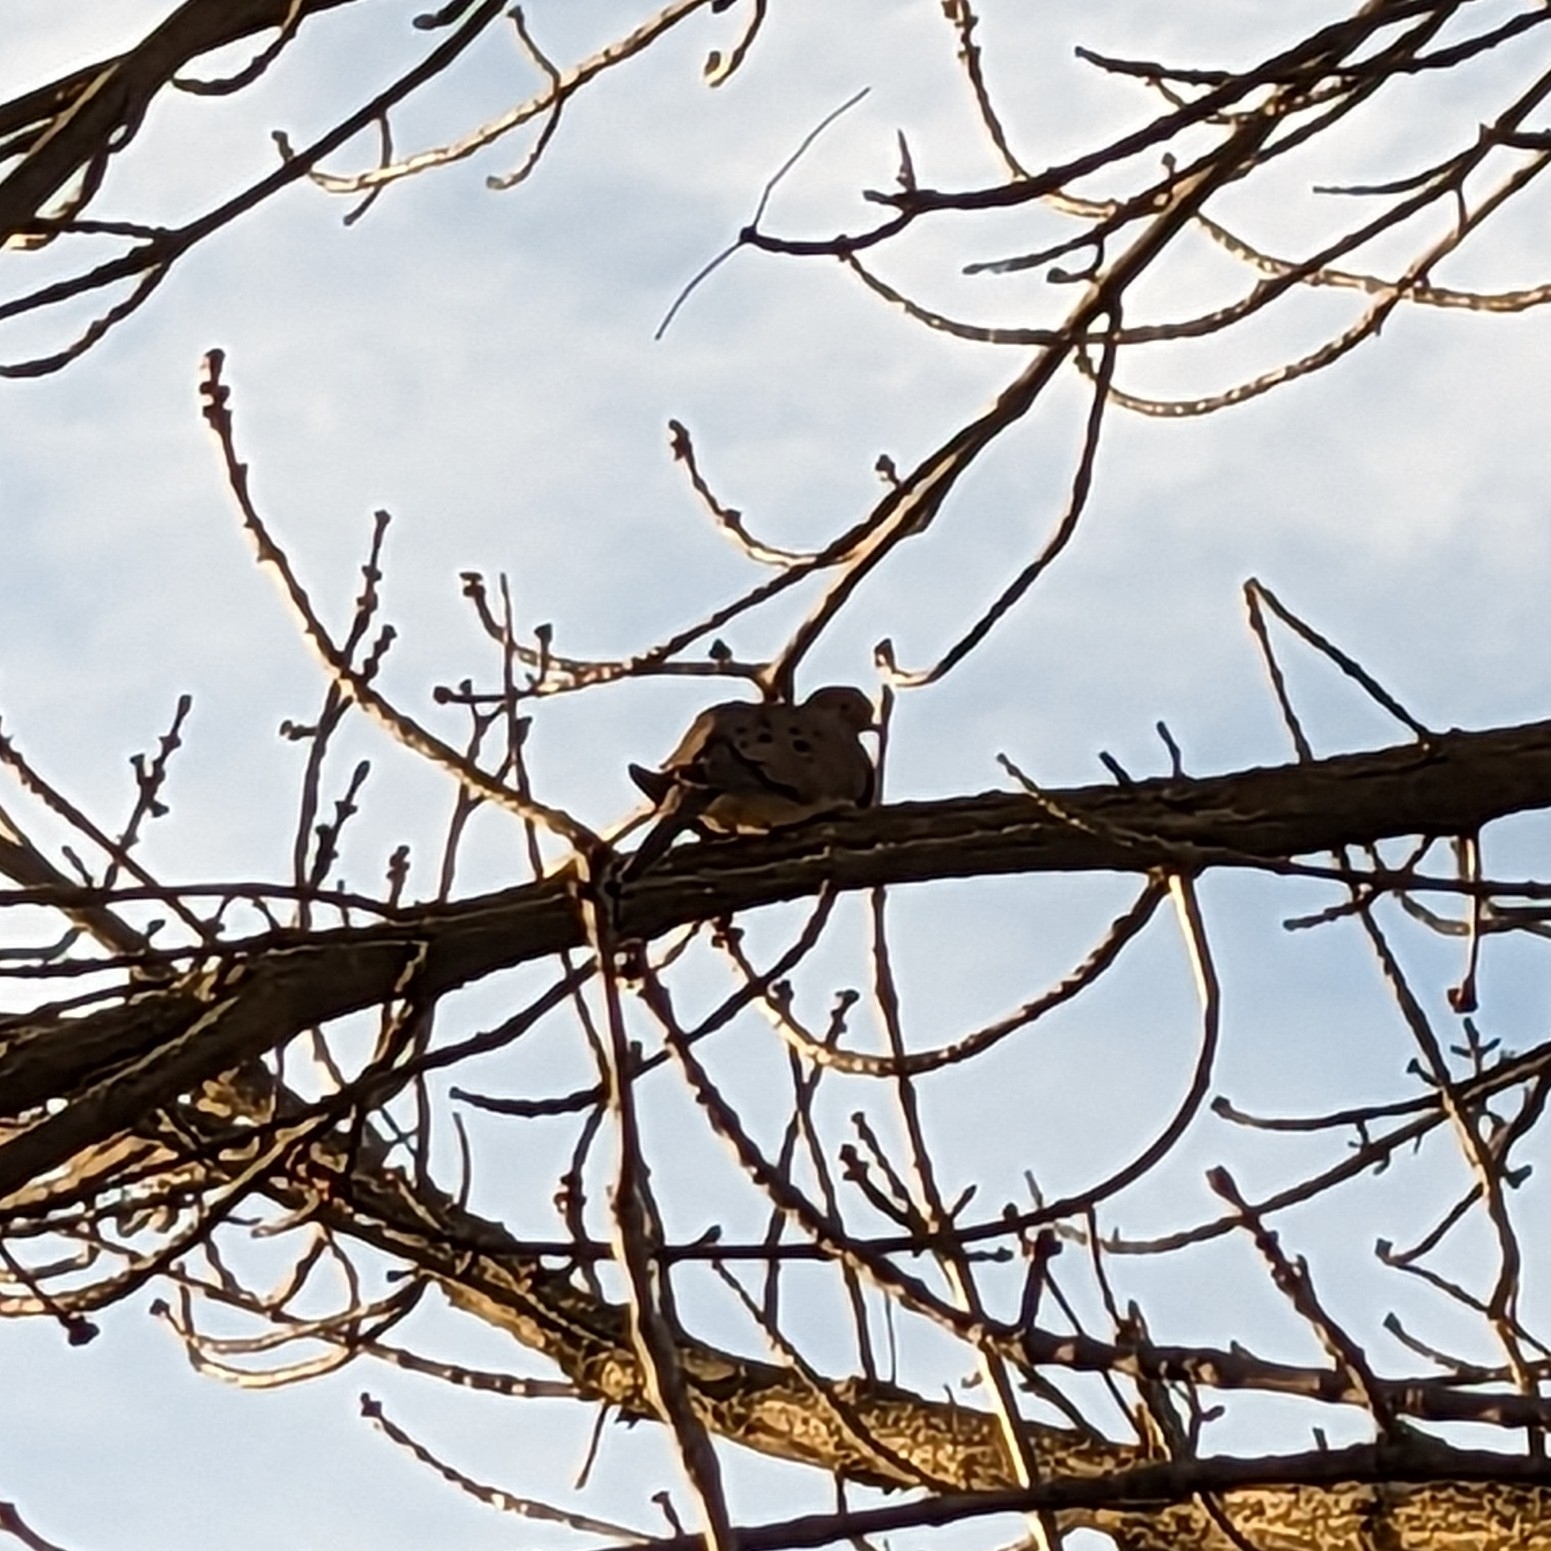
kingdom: Animalia
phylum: Chordata
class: Aves
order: Columbiformes
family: Columbidae
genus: Zenaida
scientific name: Zenaida macroura
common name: Mourning dove
